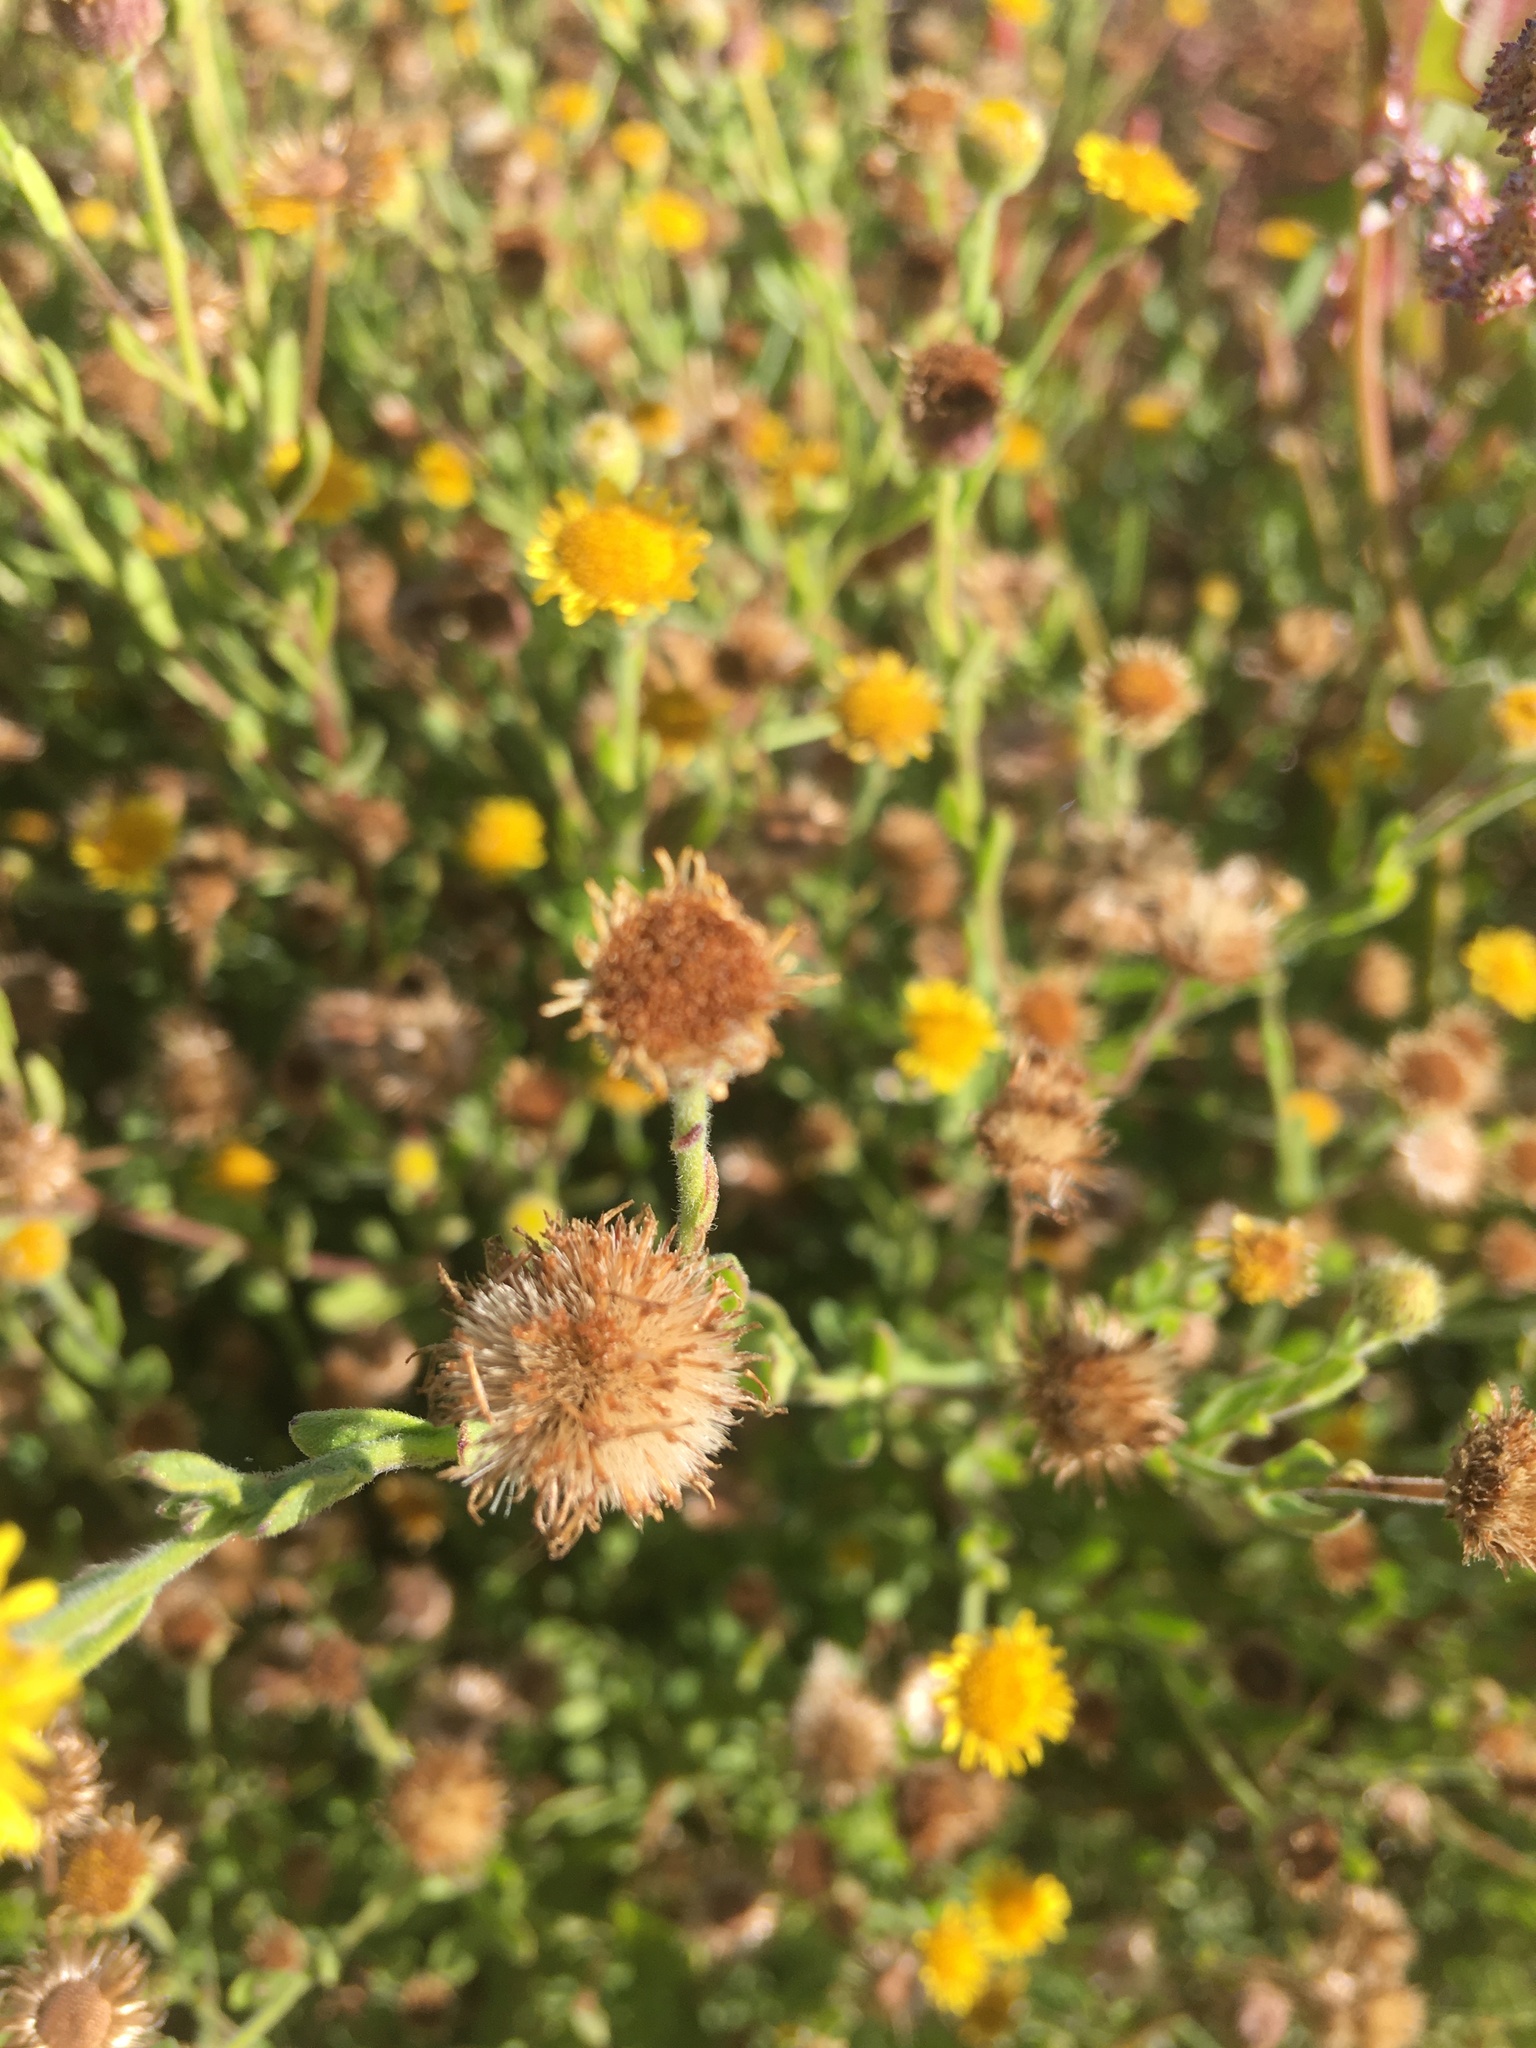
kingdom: Plantae
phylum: Tracheophyta
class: Magnoliopsida
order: Asterales
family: Asteraceae
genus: Pulicaria
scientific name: Pulicaria paludosa
